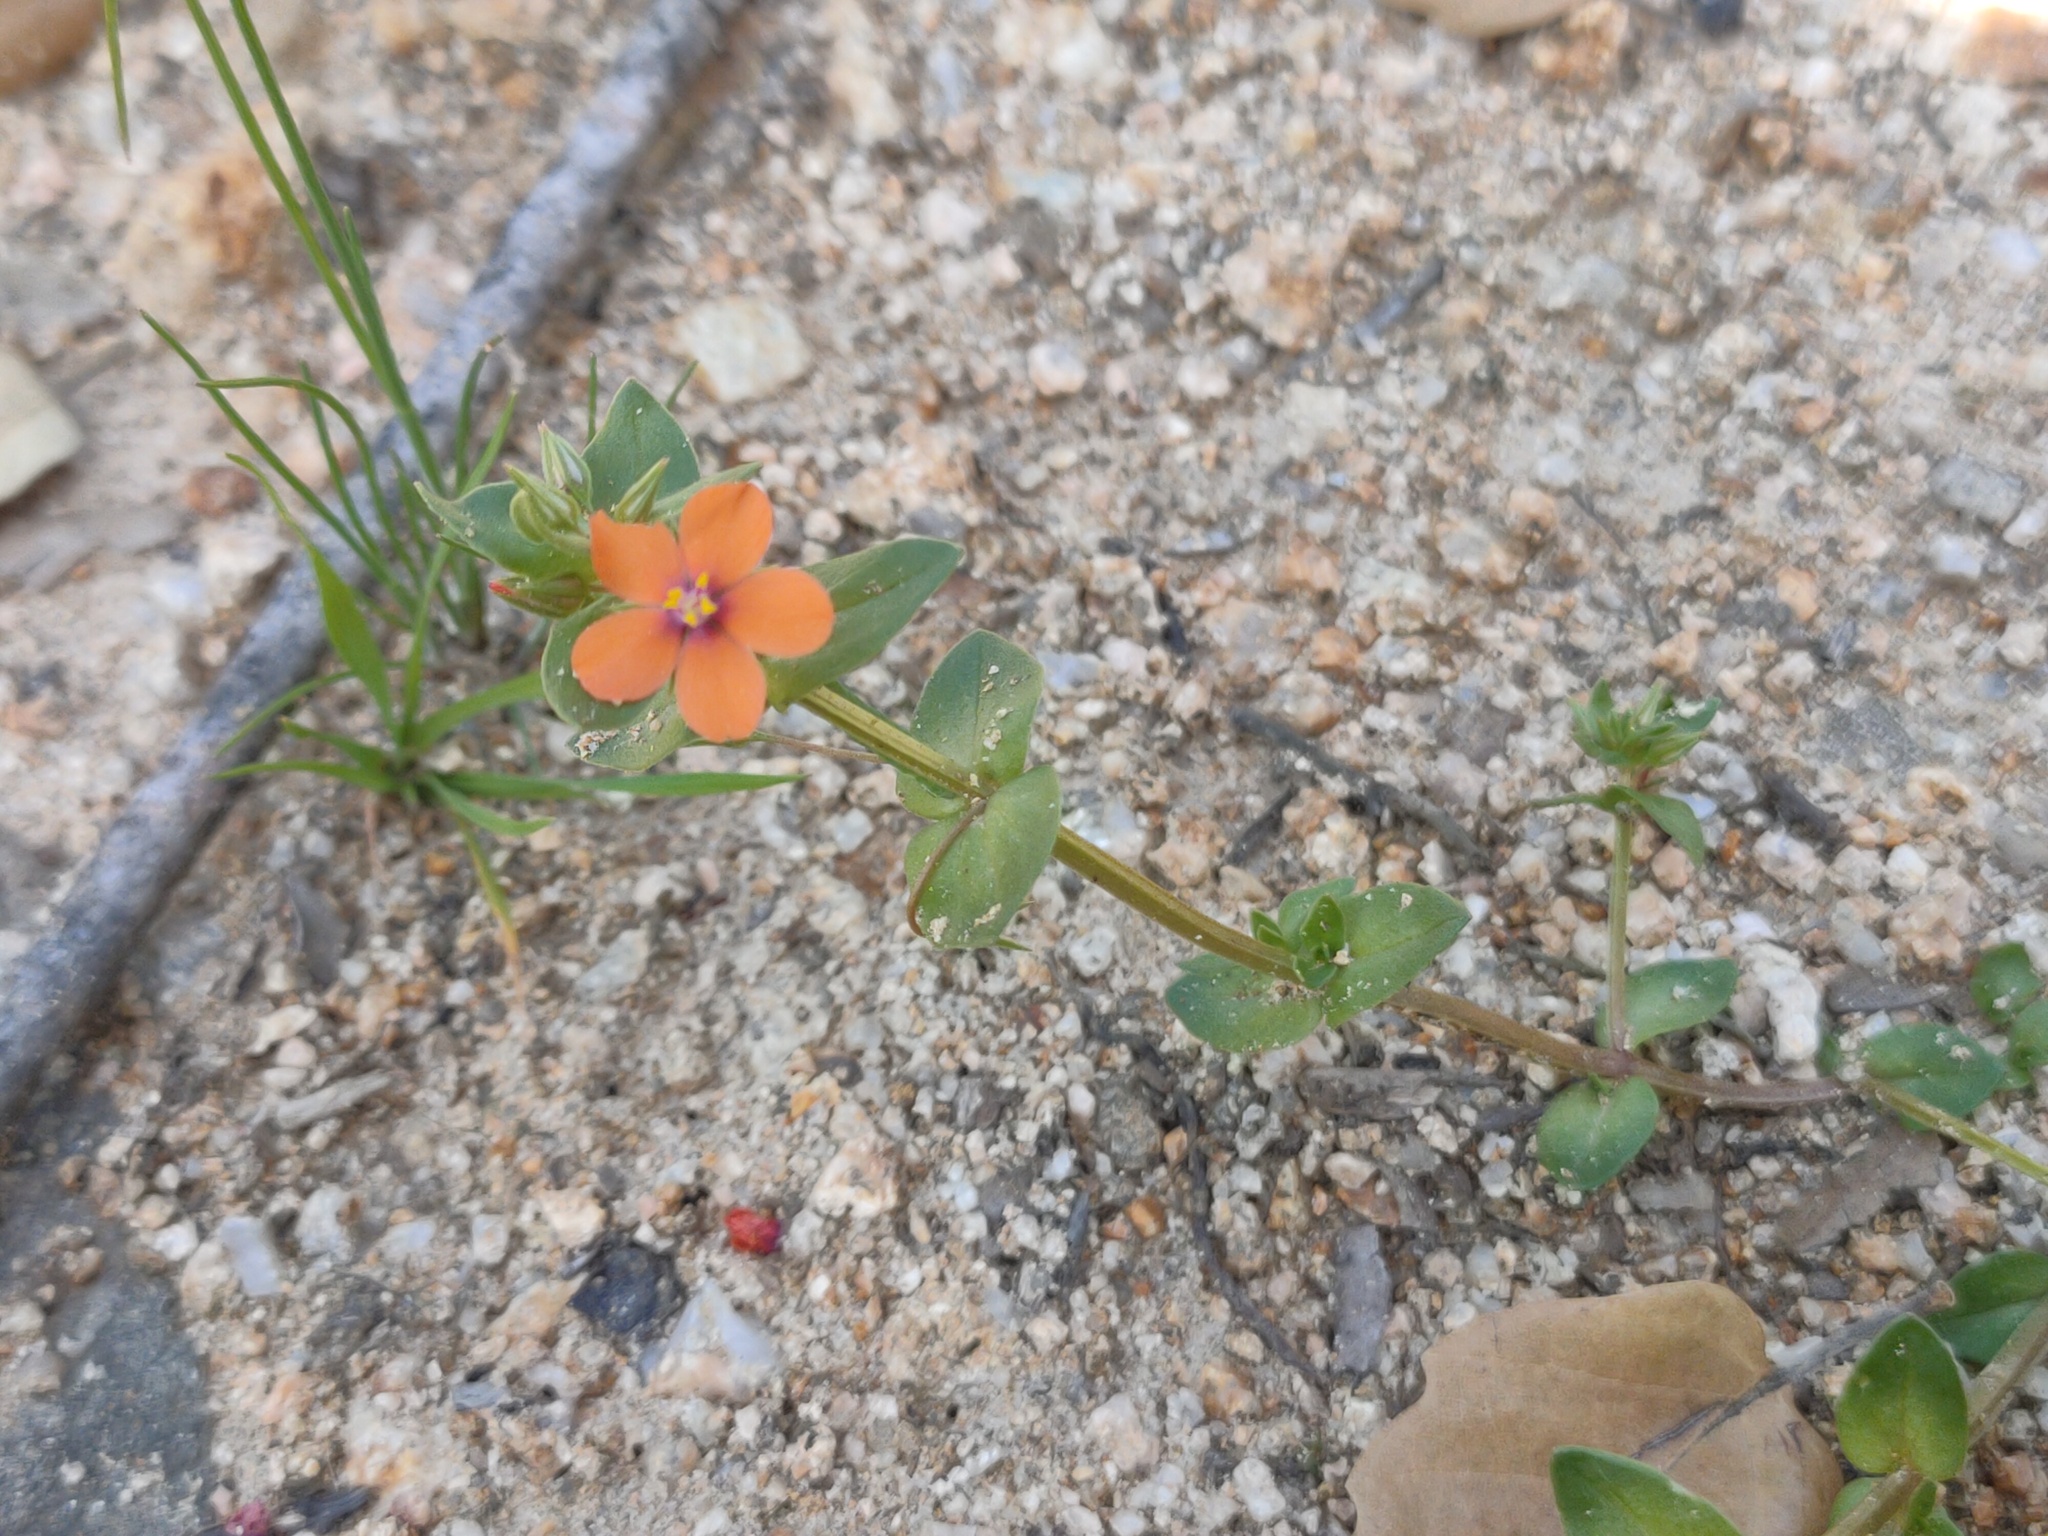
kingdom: Plantae
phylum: Tracheophyta
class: Magnoliopsida
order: Ericales
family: Primulaceae
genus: Lysimachia
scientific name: Lysimachia arvensis
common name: Scarlet pimpernel
